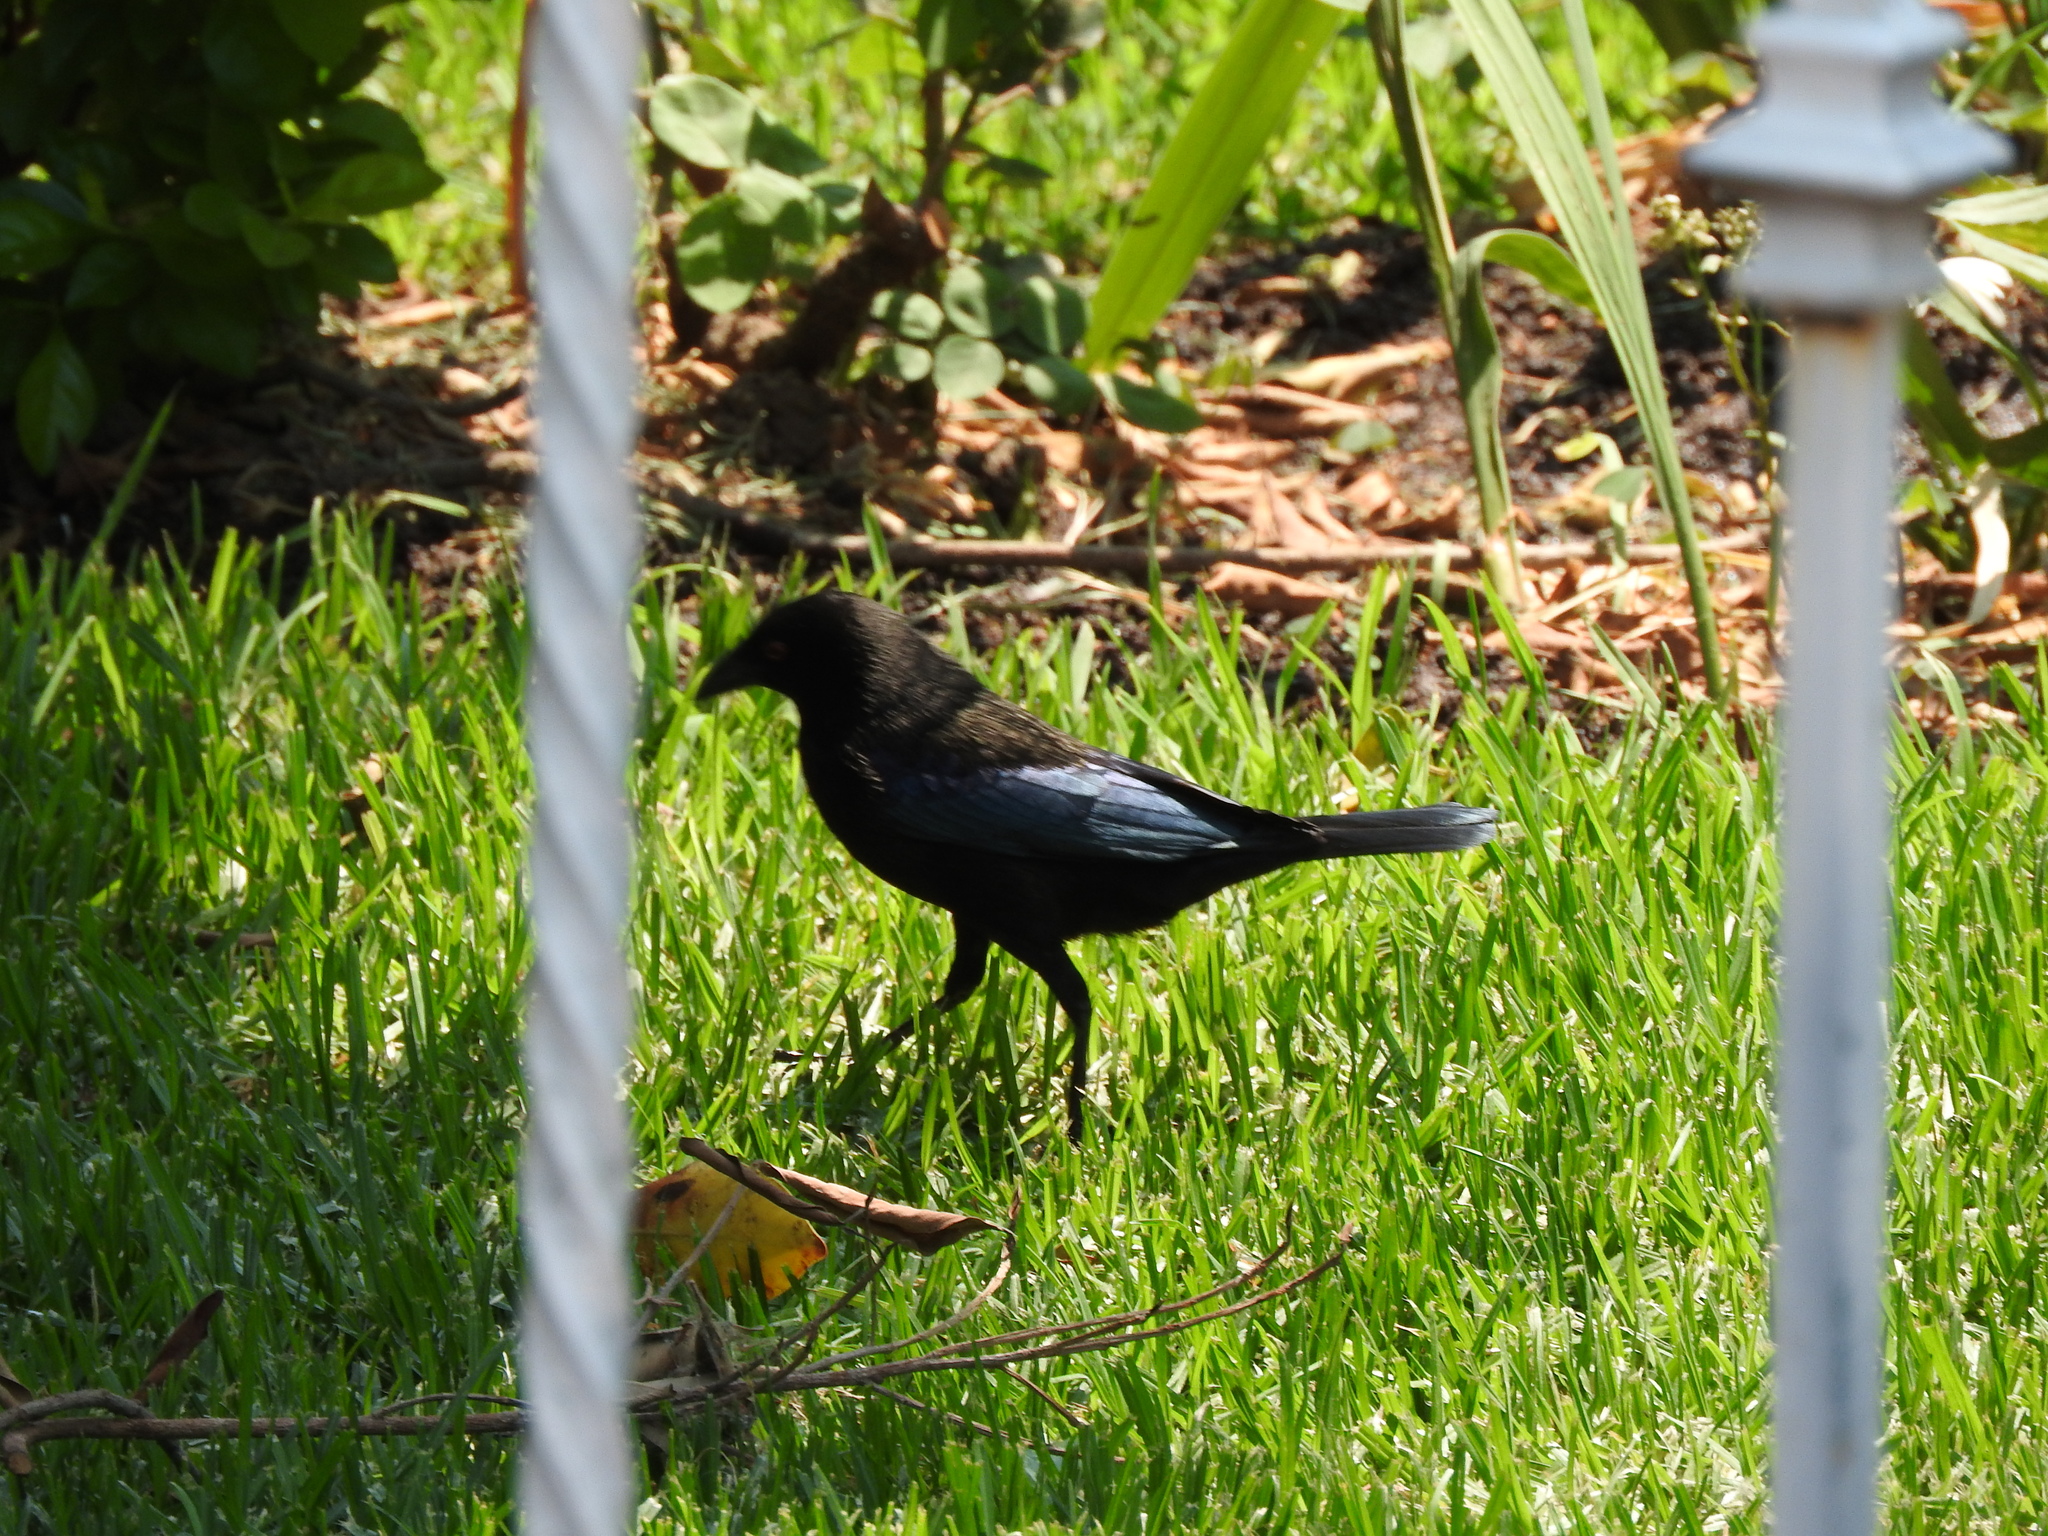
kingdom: Animalia
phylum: Chordata
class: Aves
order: Passeriformes
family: Icteridae
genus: Molothrus
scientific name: Molothrus aeneus
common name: Bronzed cowbird
